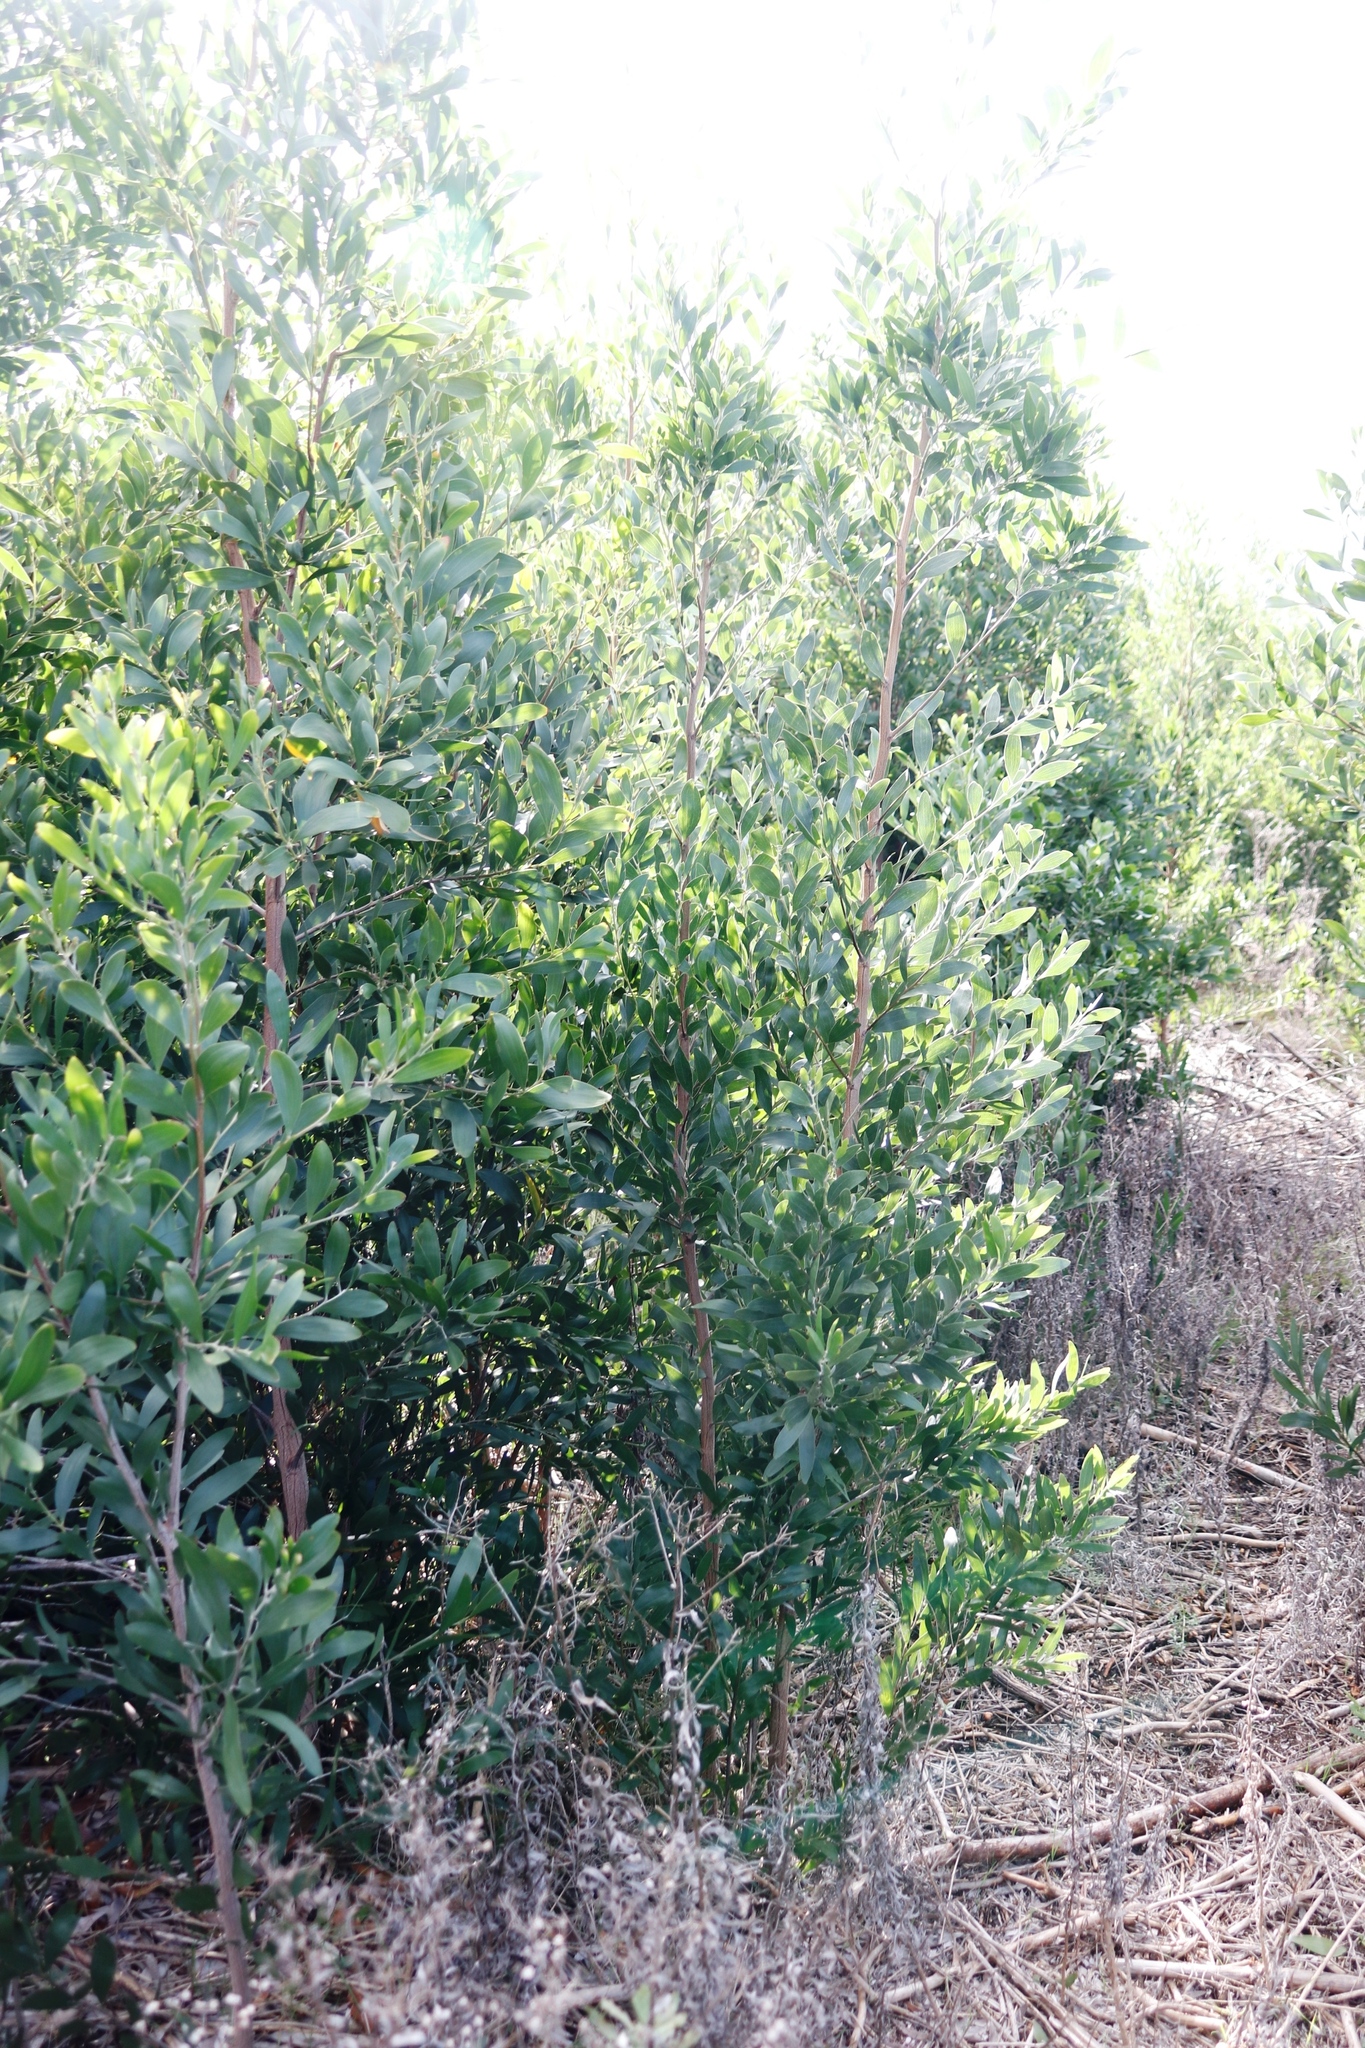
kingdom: Plantae
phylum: Tracheophyta
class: Magnoliopsida
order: Fabales
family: Fabaceae
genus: Acacia
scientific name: Acacia melanoxylon
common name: Blackwood
